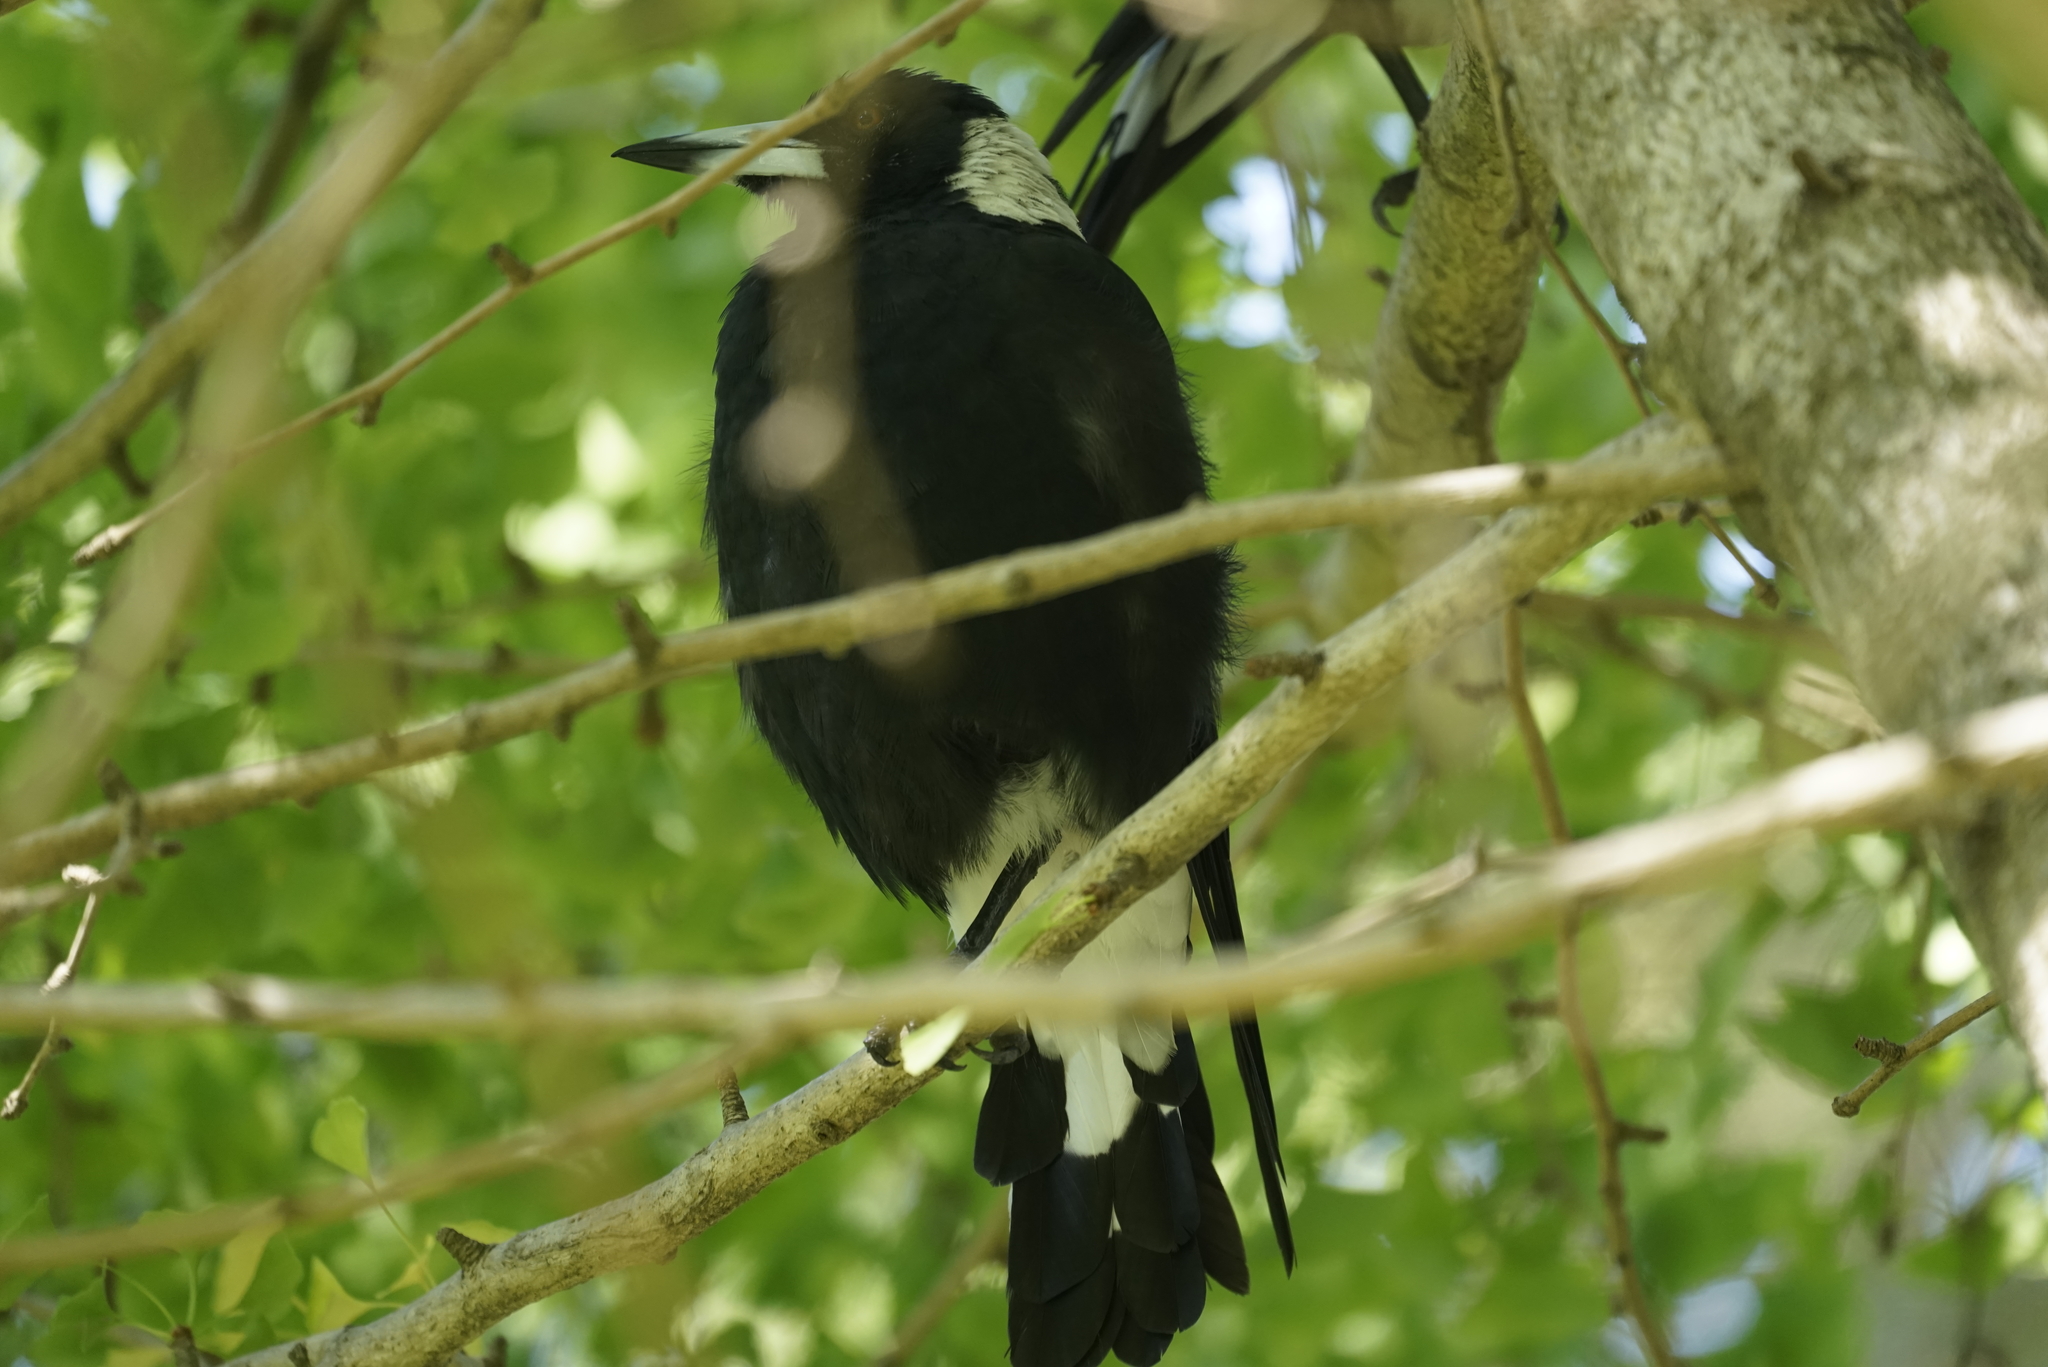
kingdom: Animalia
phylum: Chordata
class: Aves
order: Passeriformes
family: Cracticidae
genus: Gymnorhina
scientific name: Gymnorhina tibicen
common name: Australian magpie
